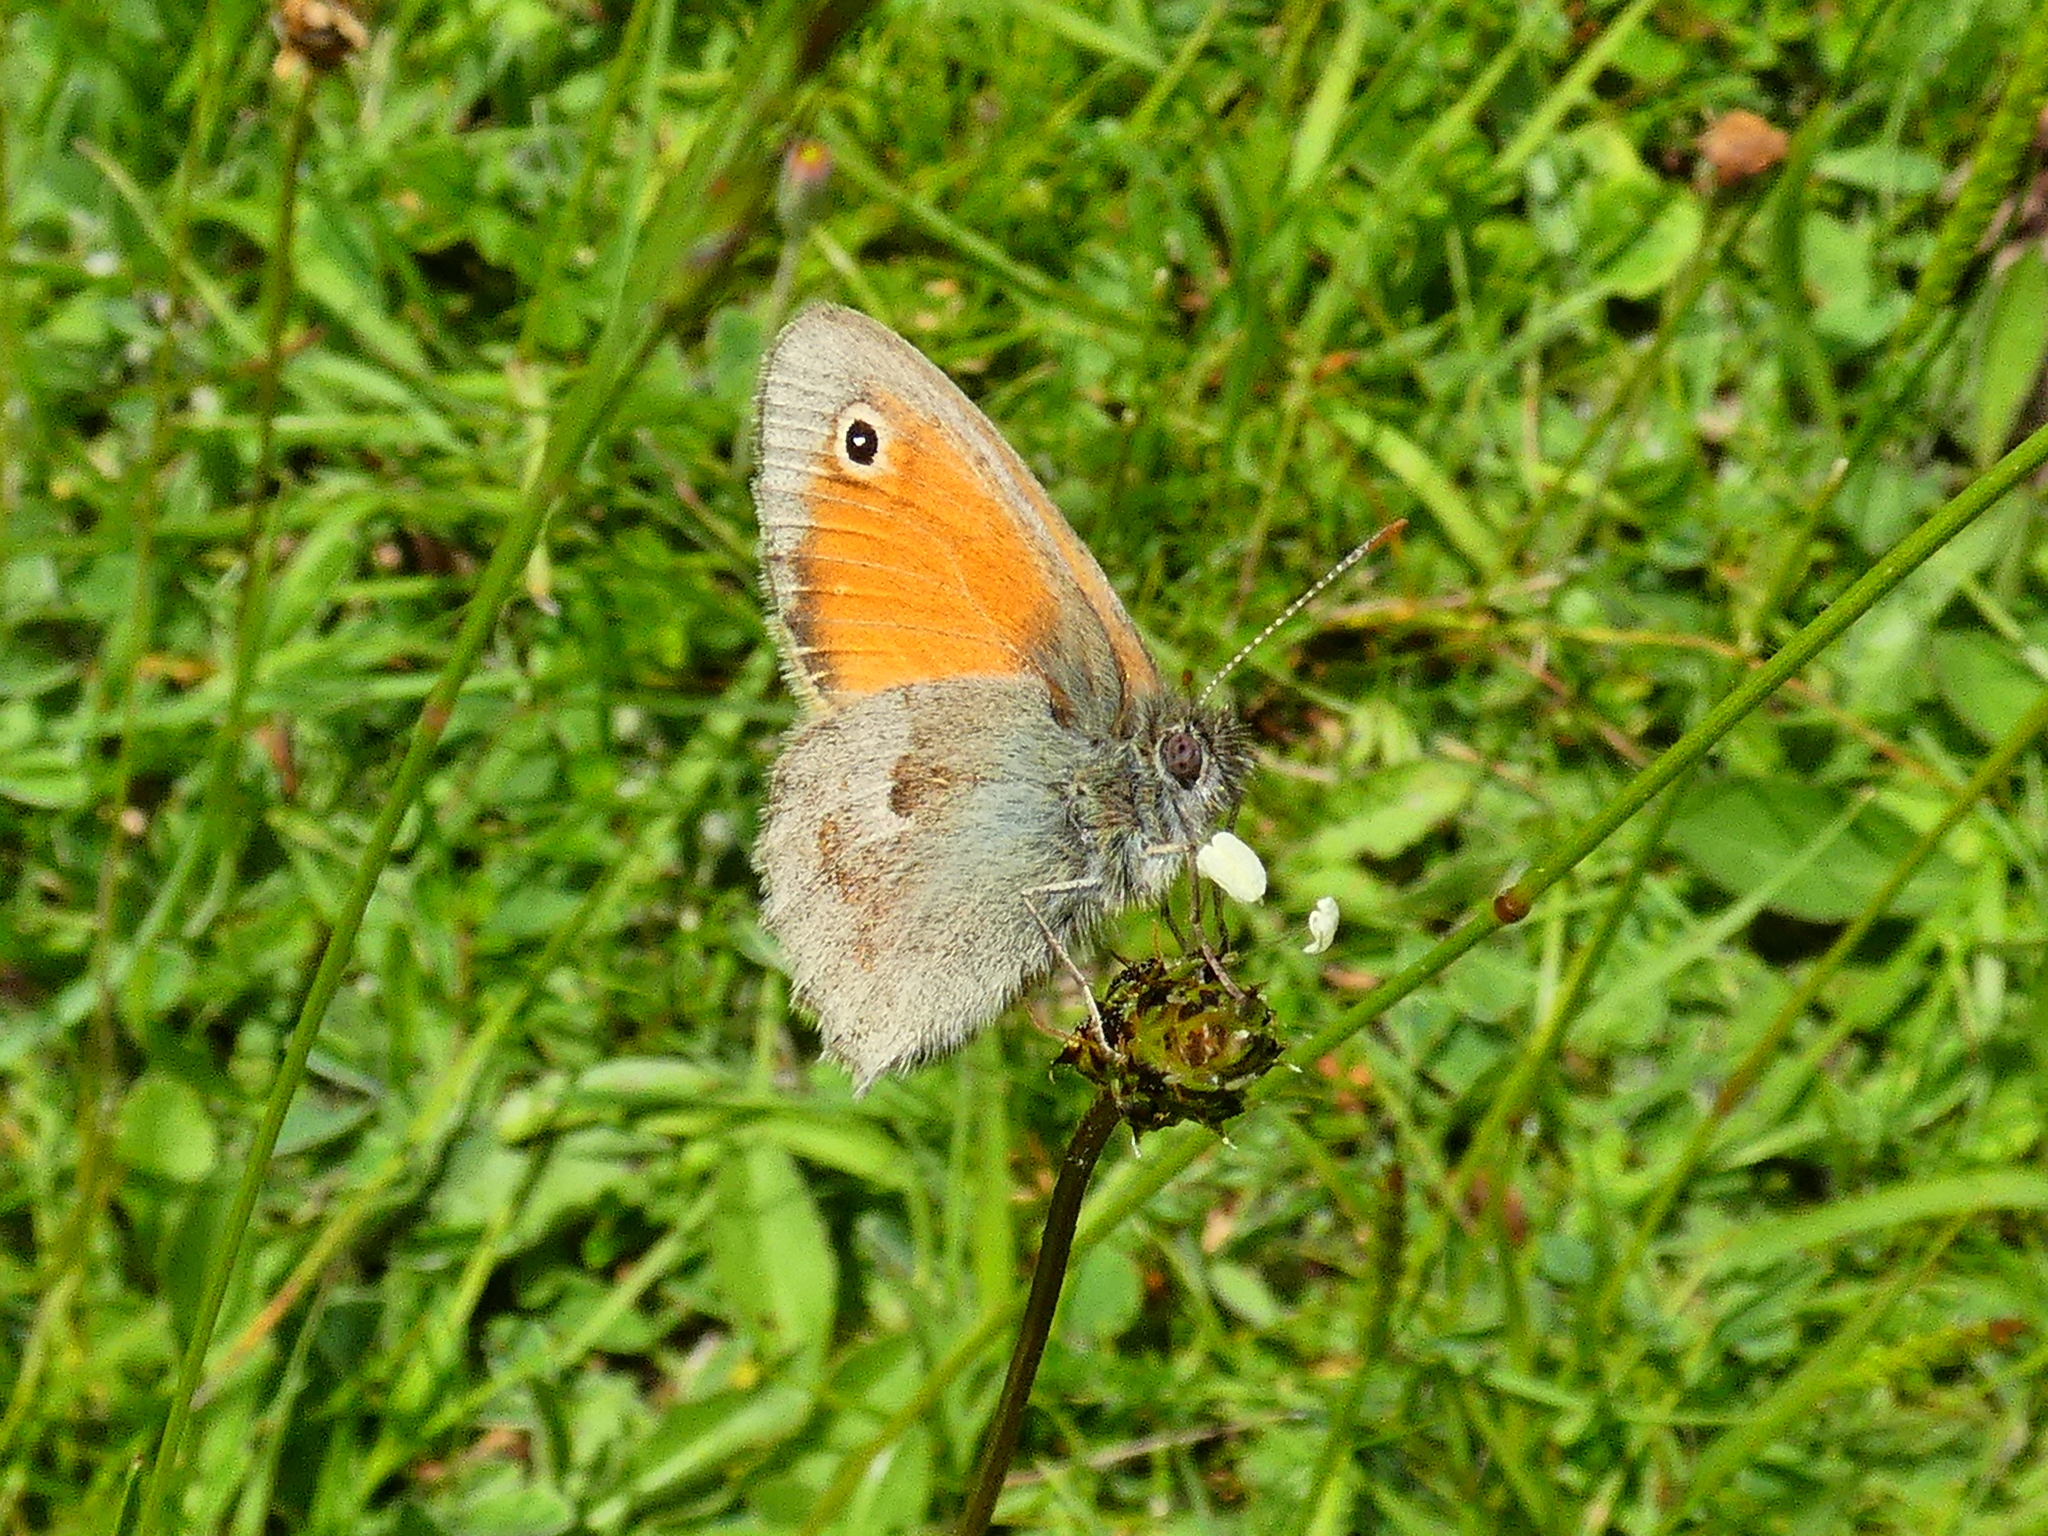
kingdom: Animalia
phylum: Arthropoda
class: Insecta
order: Lepidoptera
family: Nymphalidae
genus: Coenonympha
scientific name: Coenonympha pamphilus
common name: Small heath
